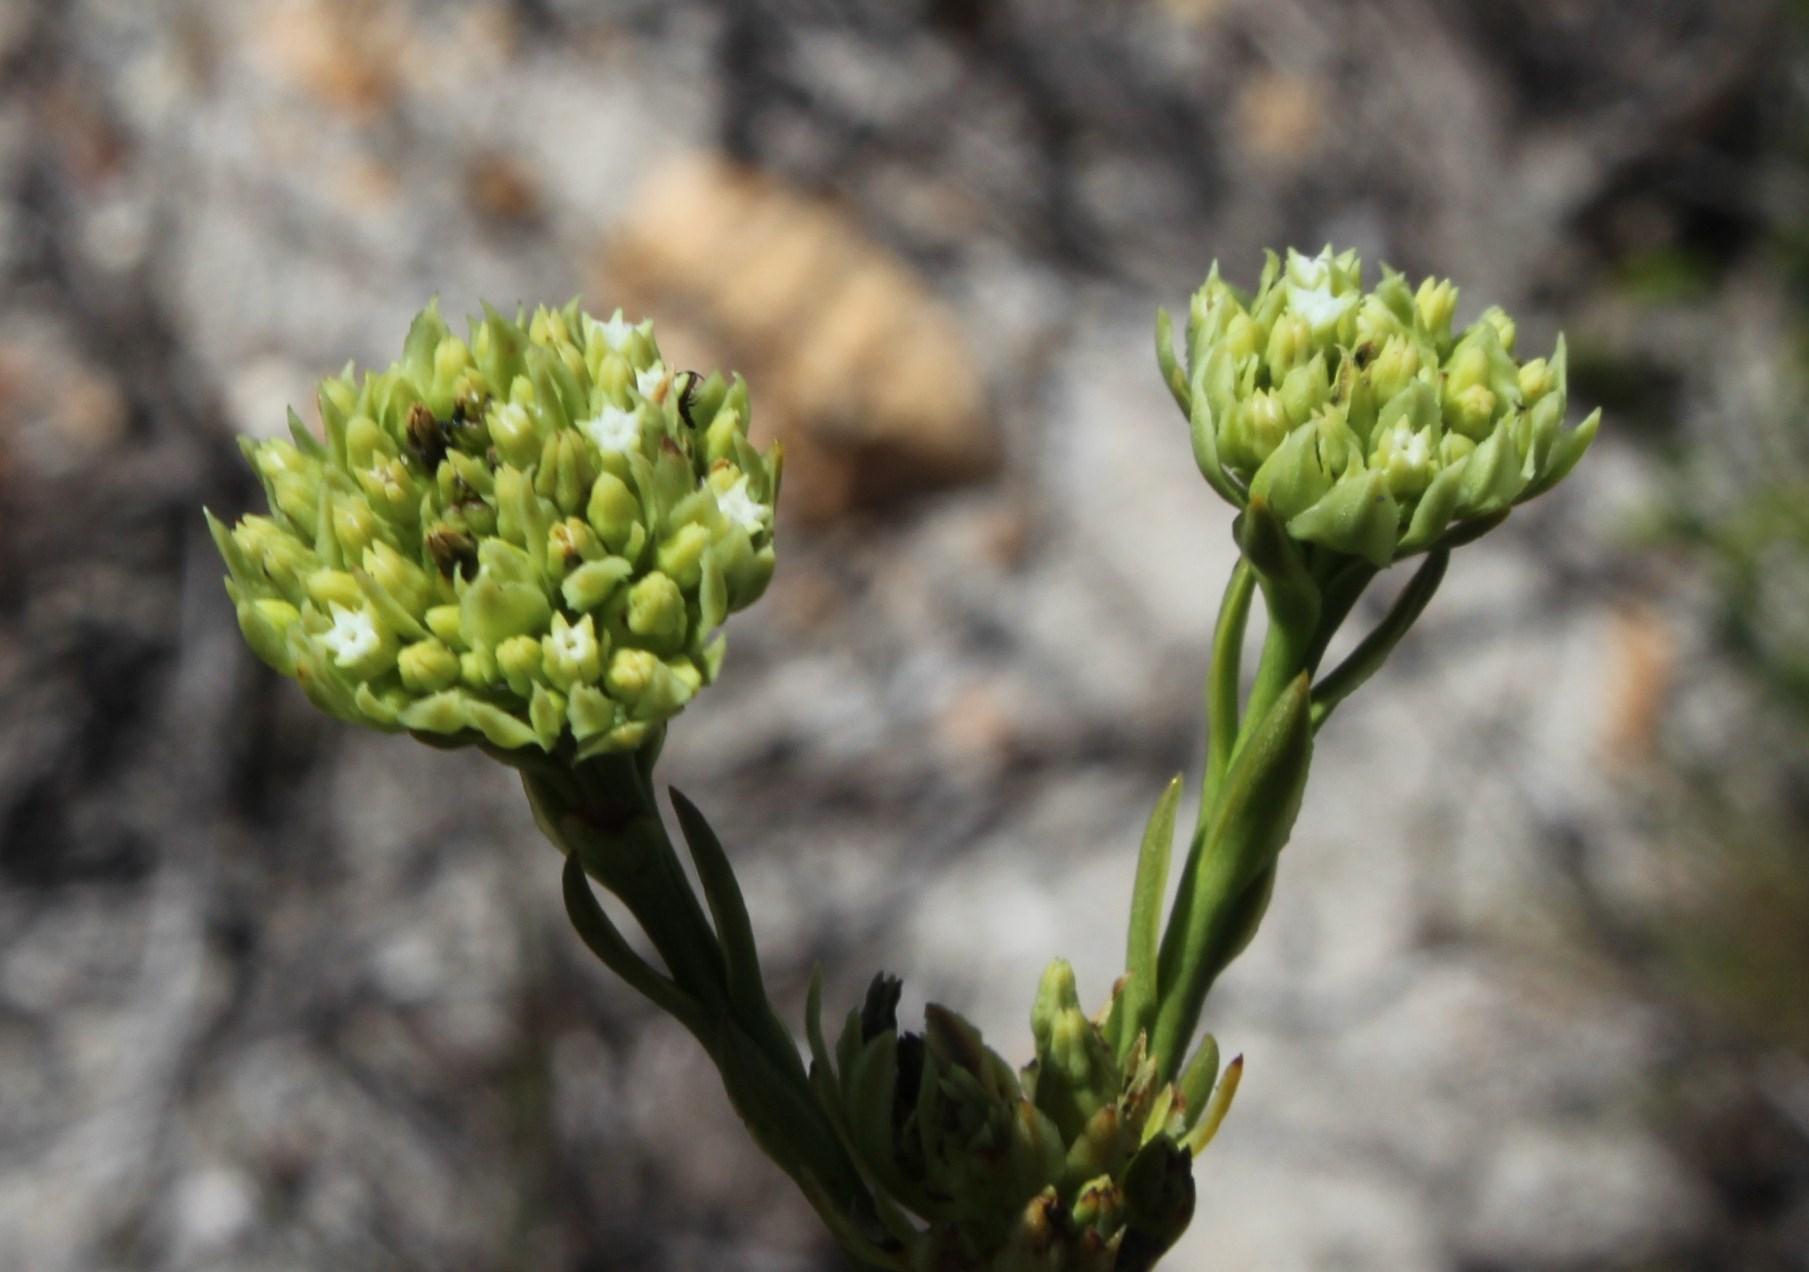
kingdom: Plantae
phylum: Tracheophyta
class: Magnoliopsida
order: Santalales
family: Thesiaceae
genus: Thesium
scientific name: Thesium strictum
